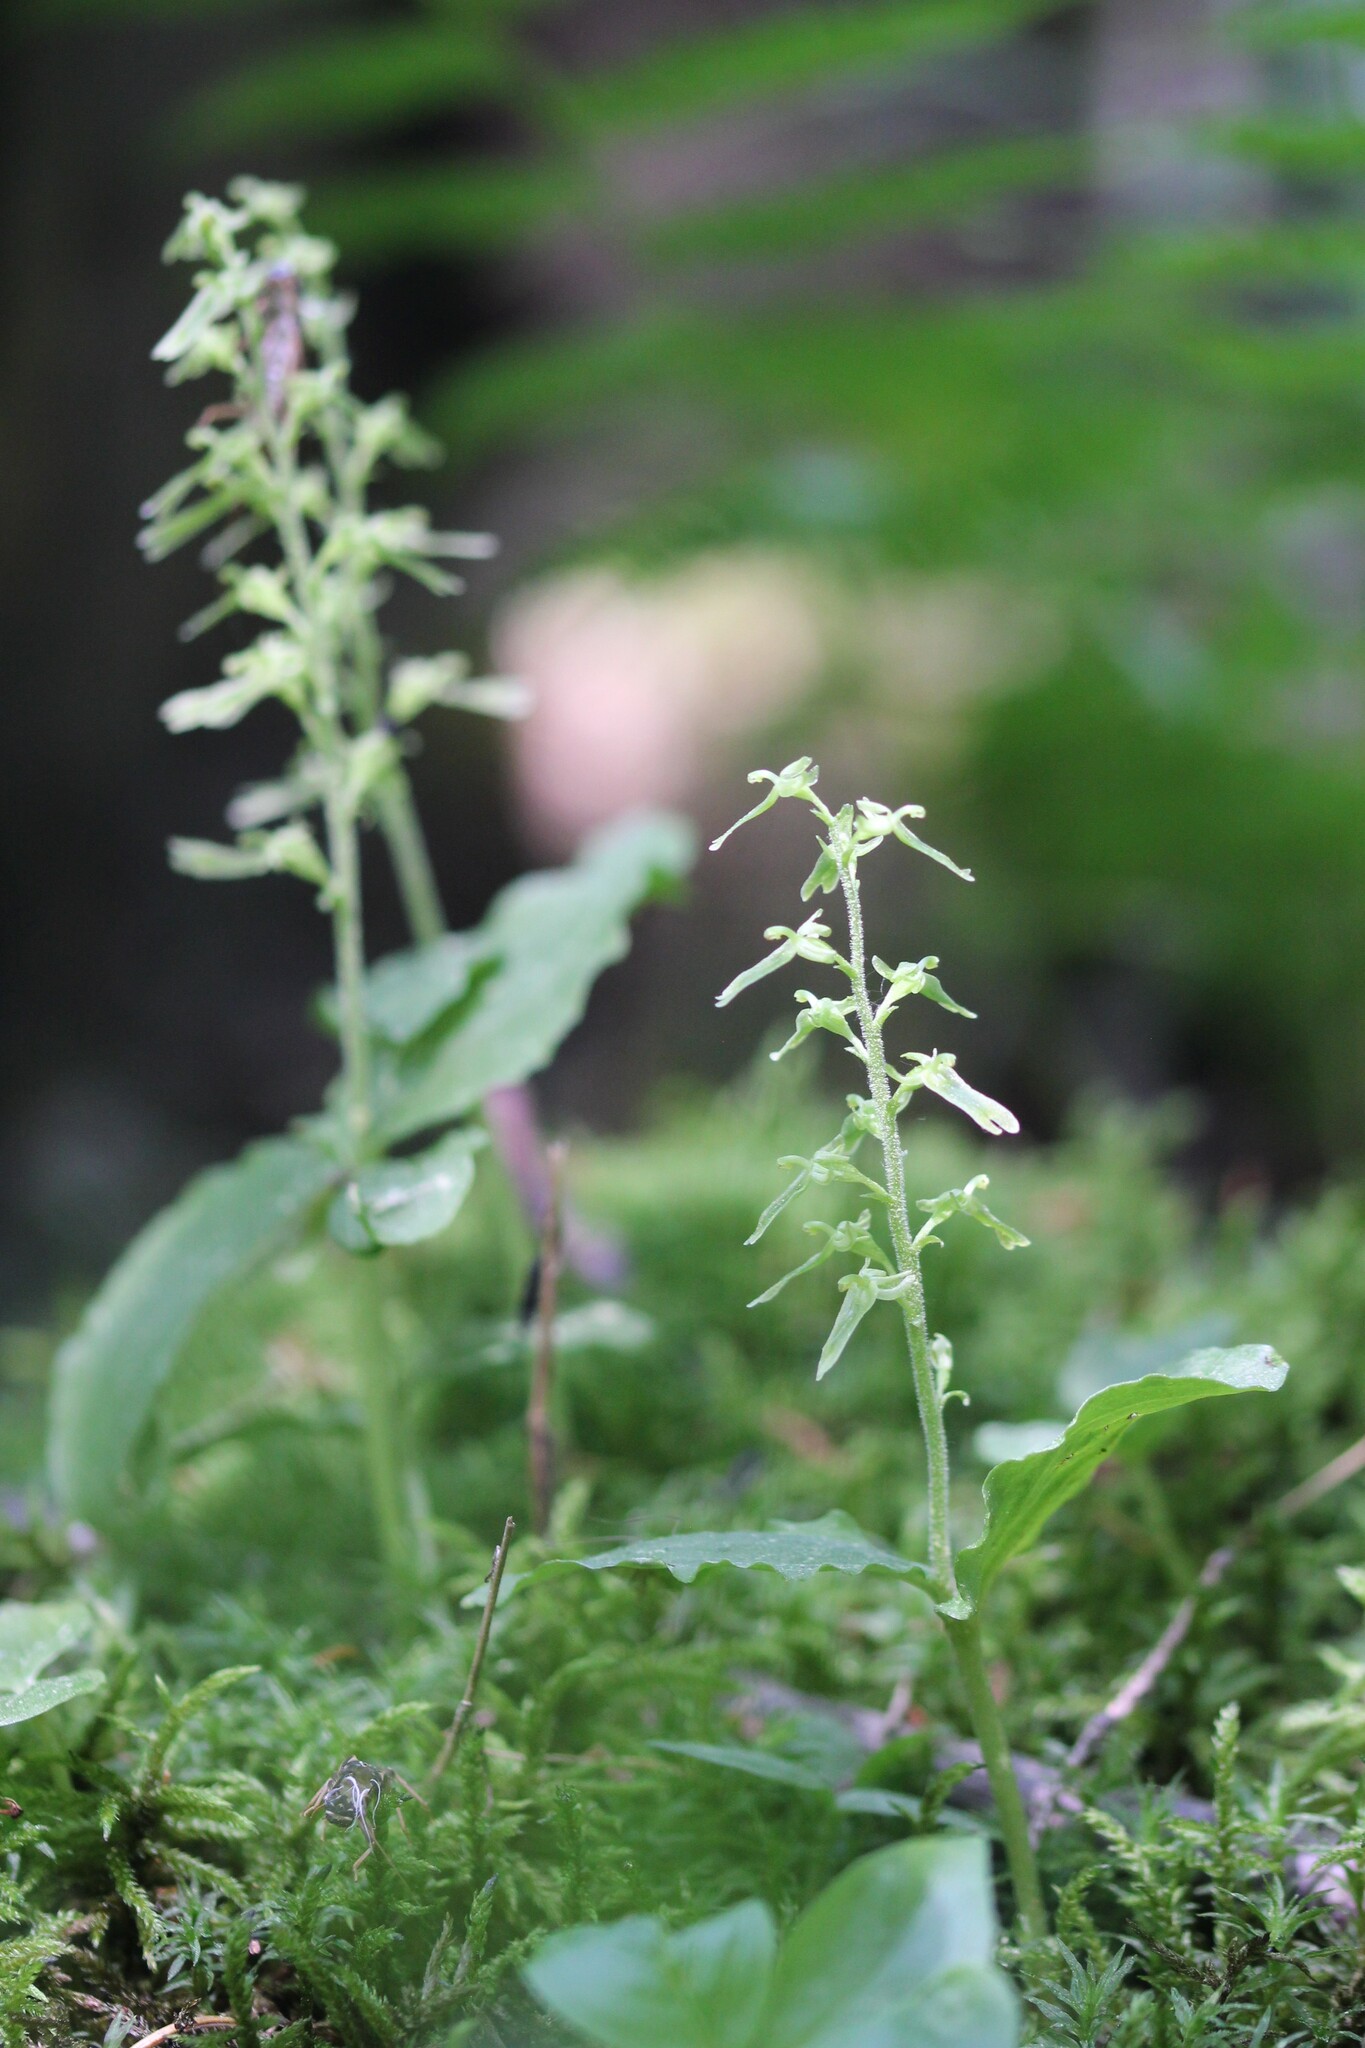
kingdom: Plantae
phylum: Tracheophyta
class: Liliopsida
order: Asparagales
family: Orchidaceae
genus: Neottia
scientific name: Neottia auriculata
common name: Auricled twayblade
